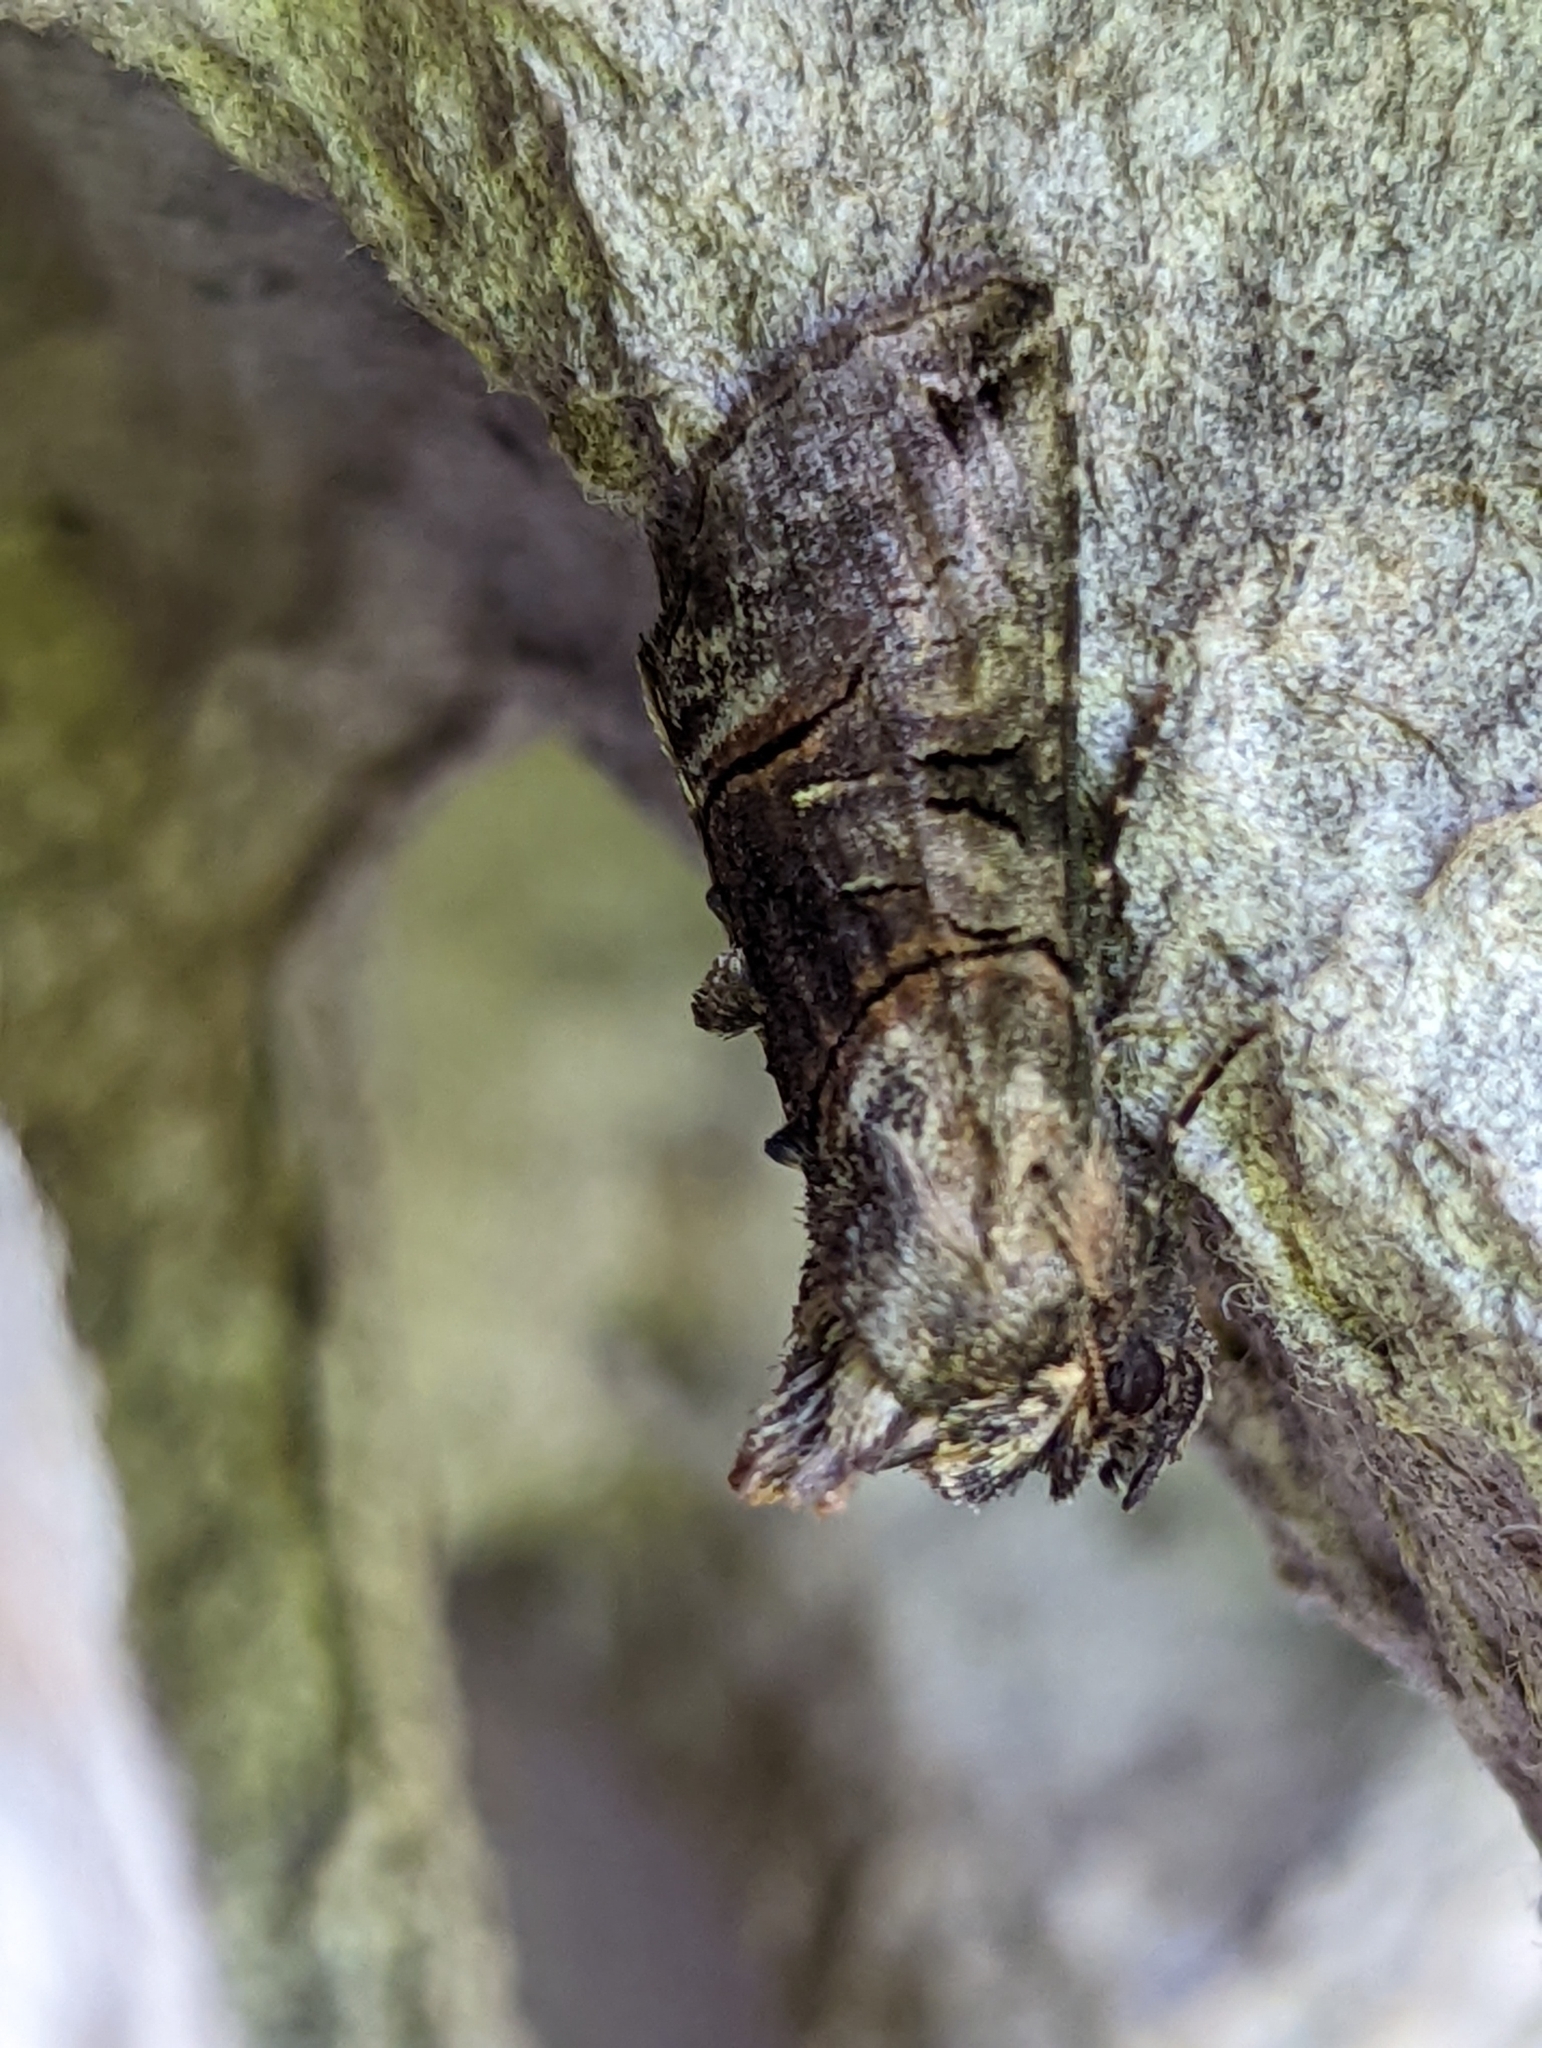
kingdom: Animalia
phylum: Arthropoda
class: Insecta
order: Lepidoptera
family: Noctuidae
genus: Abrostola
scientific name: Abrostola tripartita
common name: Spectacle
